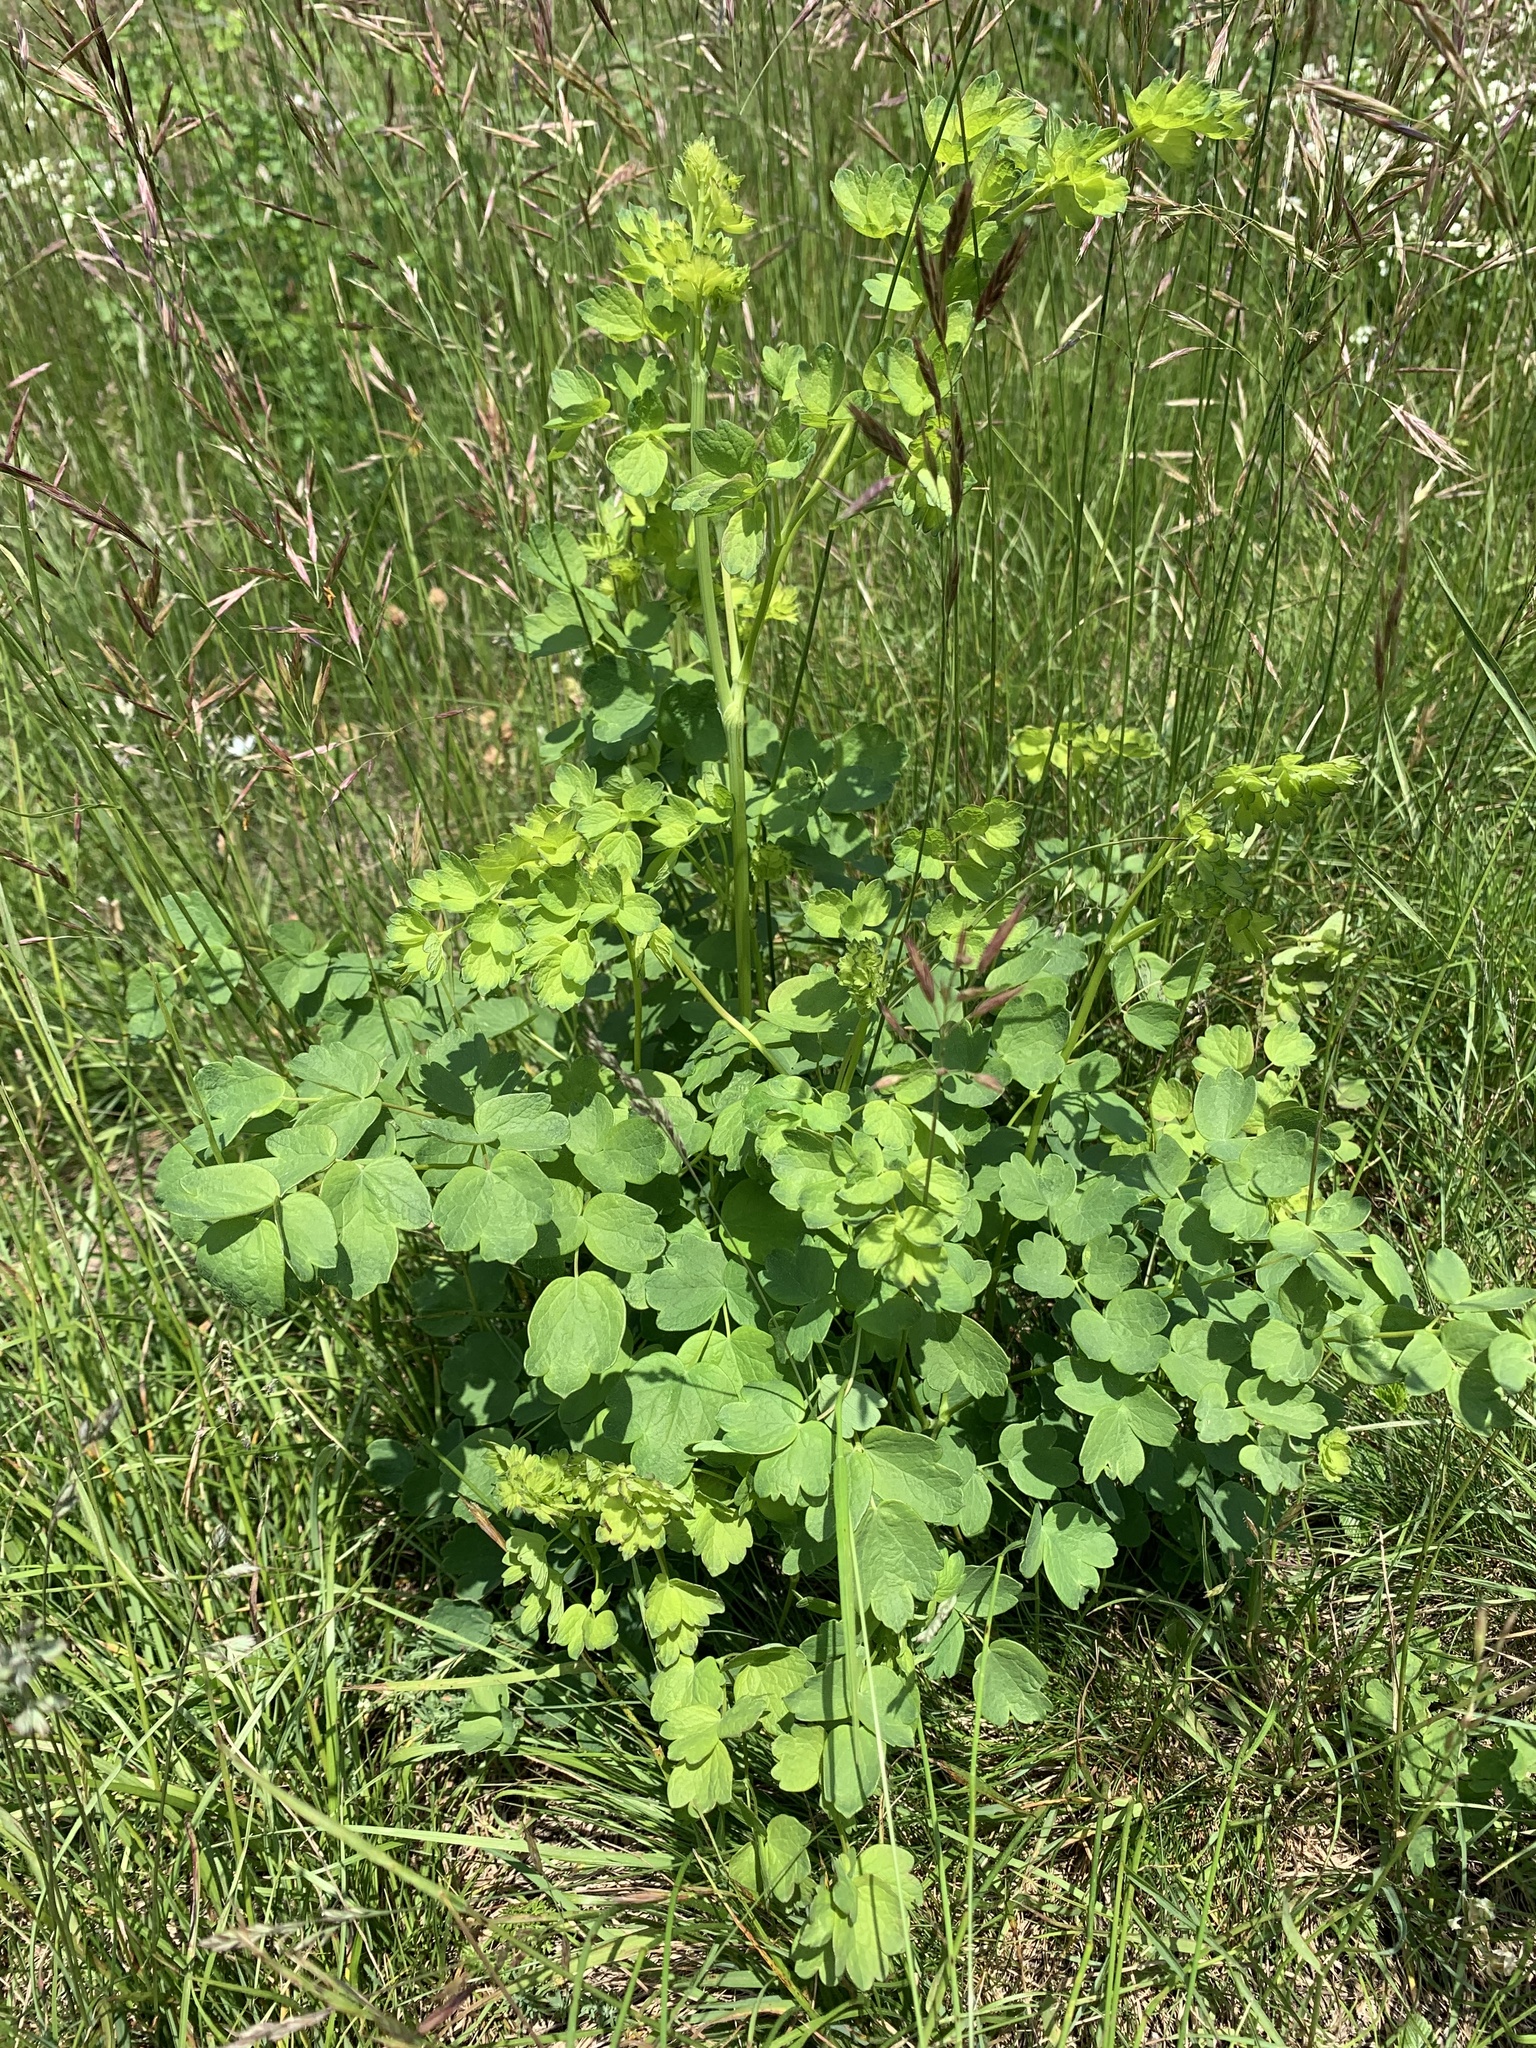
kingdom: Plantae
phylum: Tracheophyta
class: Magnoliopsida
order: Ranunculales
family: Ranunculaceae
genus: Thalictrum
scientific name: Thalictrum aquilegiifolium
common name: French meadow-rue
